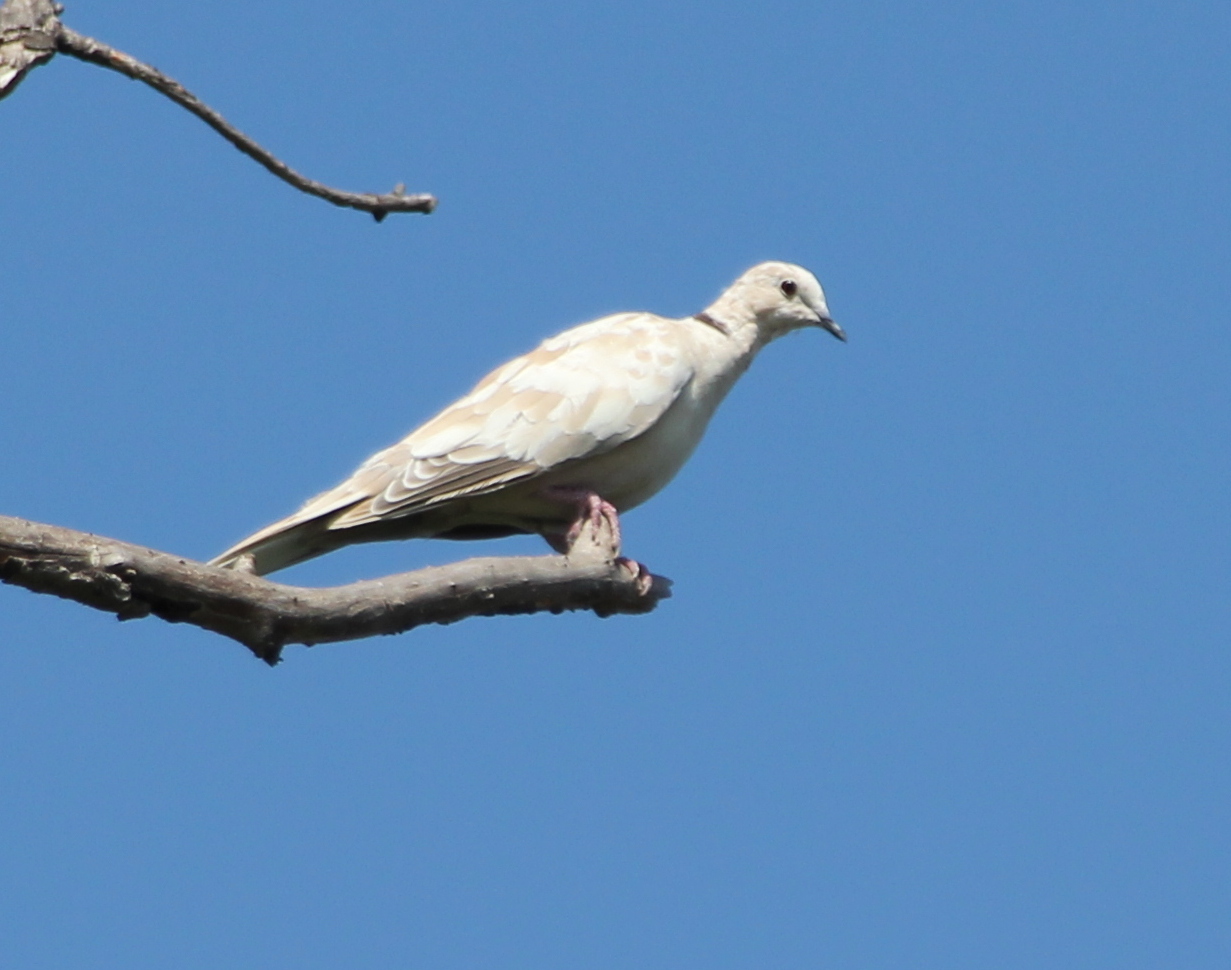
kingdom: Animalia
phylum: Chordata
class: Aves
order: Columbiformes
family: Columbidae
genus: Streptopelia
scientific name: Streptopelia decaocto
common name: Eurasian collared dove
